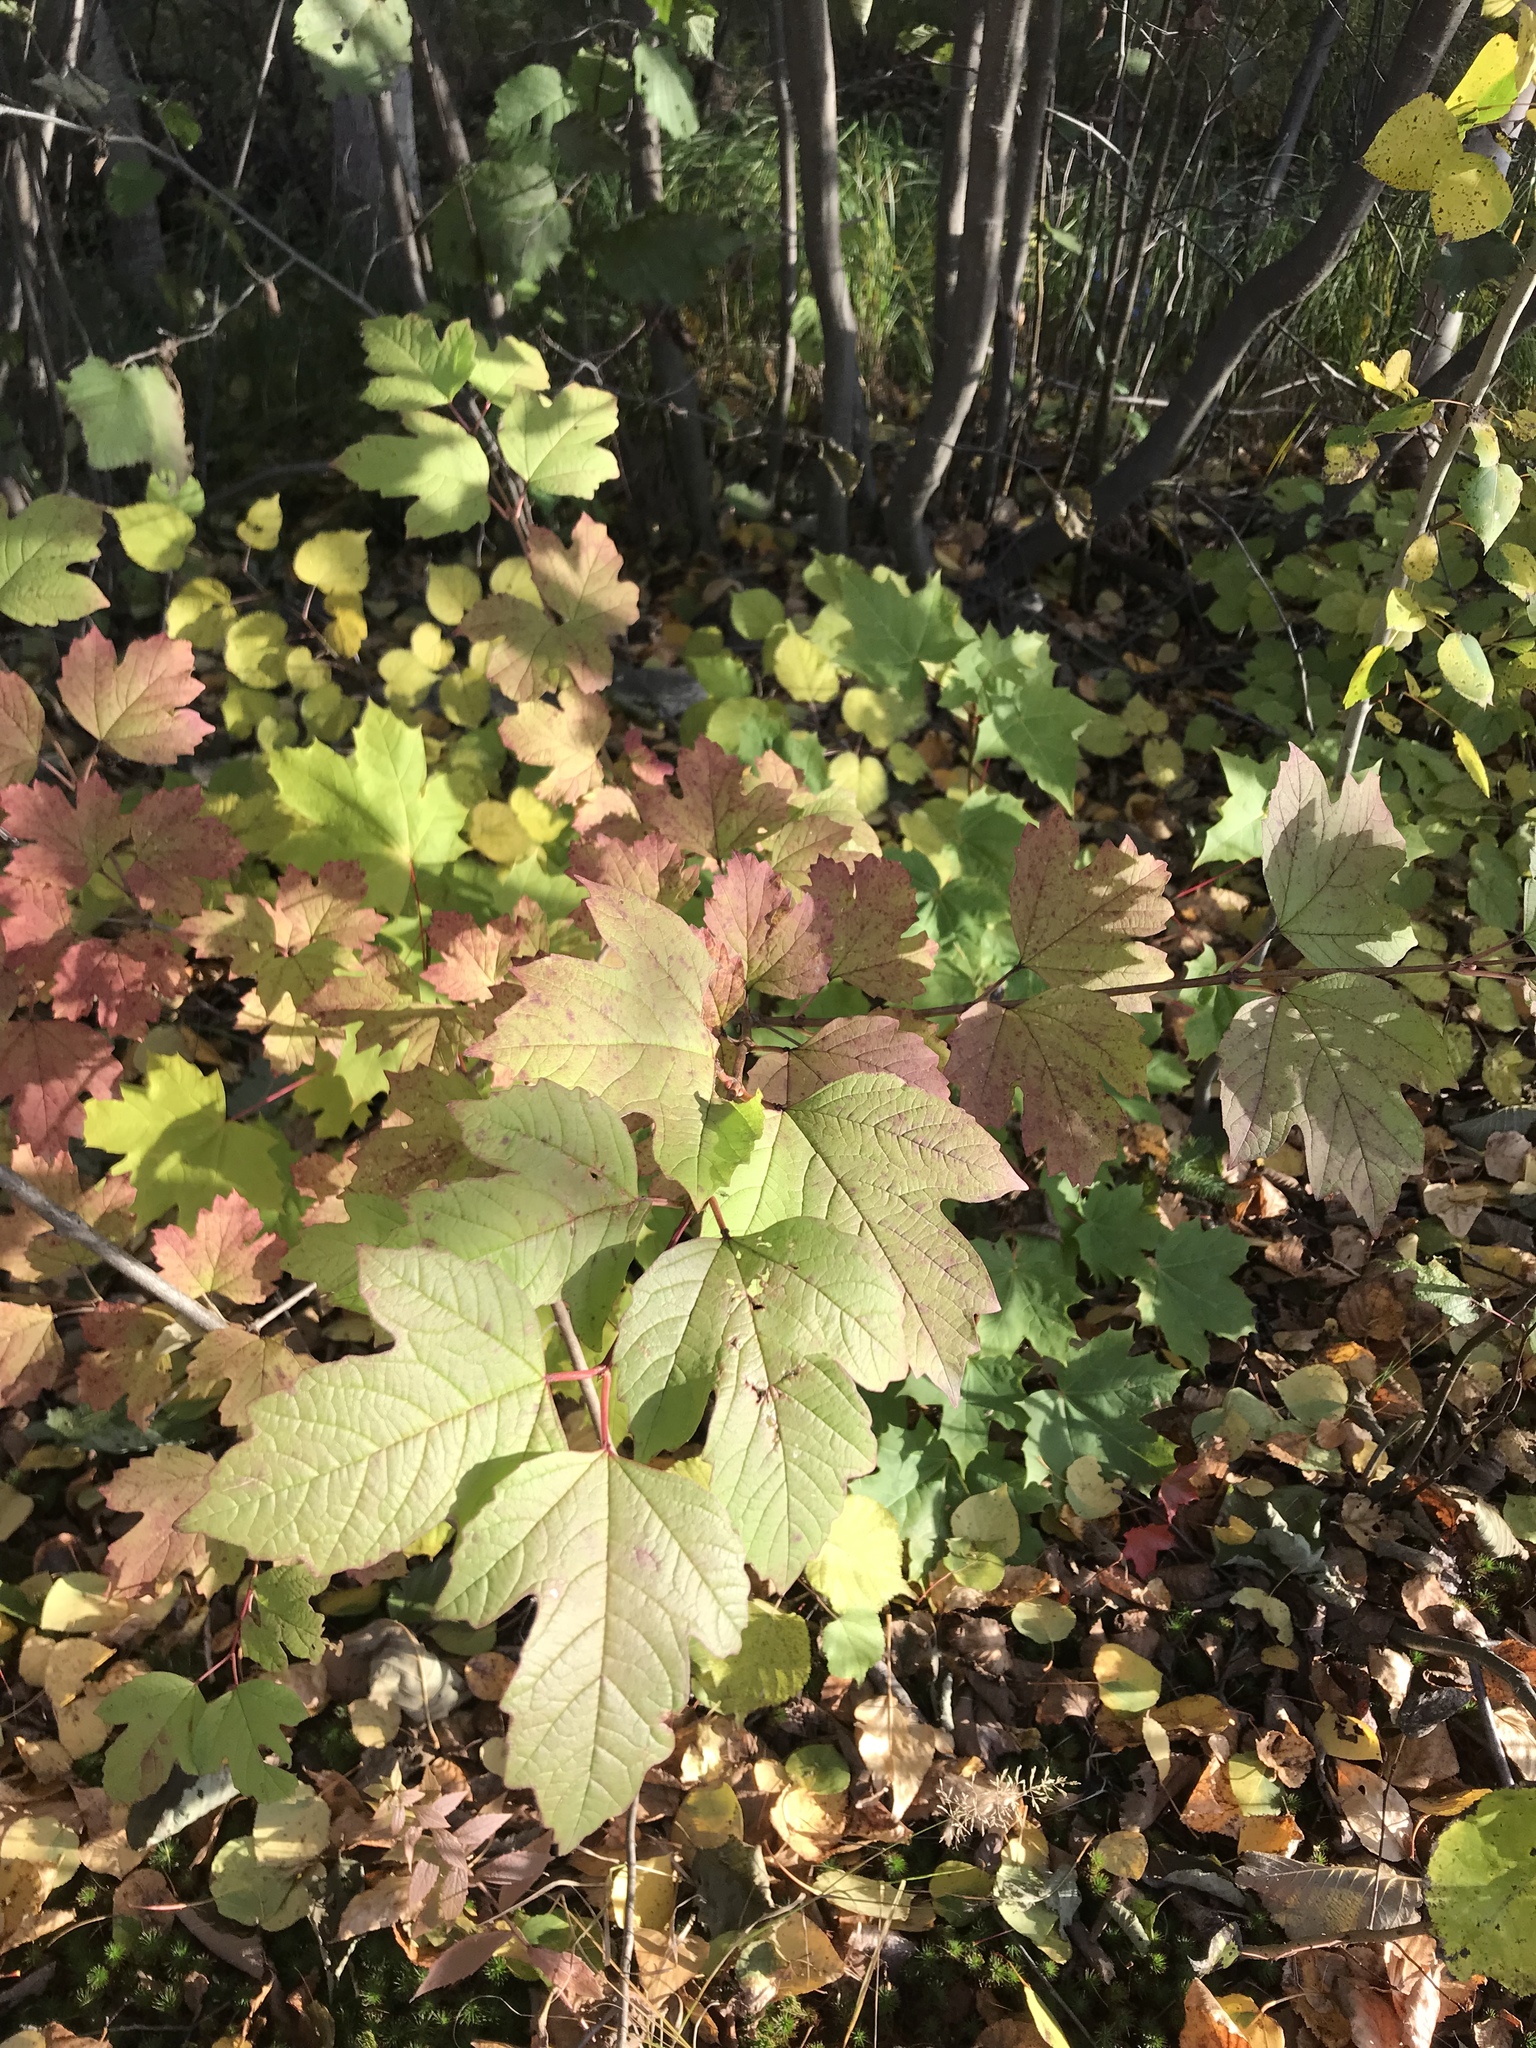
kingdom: Plantae
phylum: Tracheophyta
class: Magnoliopsida
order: Dipsacales
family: Viburnaceae
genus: Viburnum
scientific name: Viburnum opulus
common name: Guelder-rose
